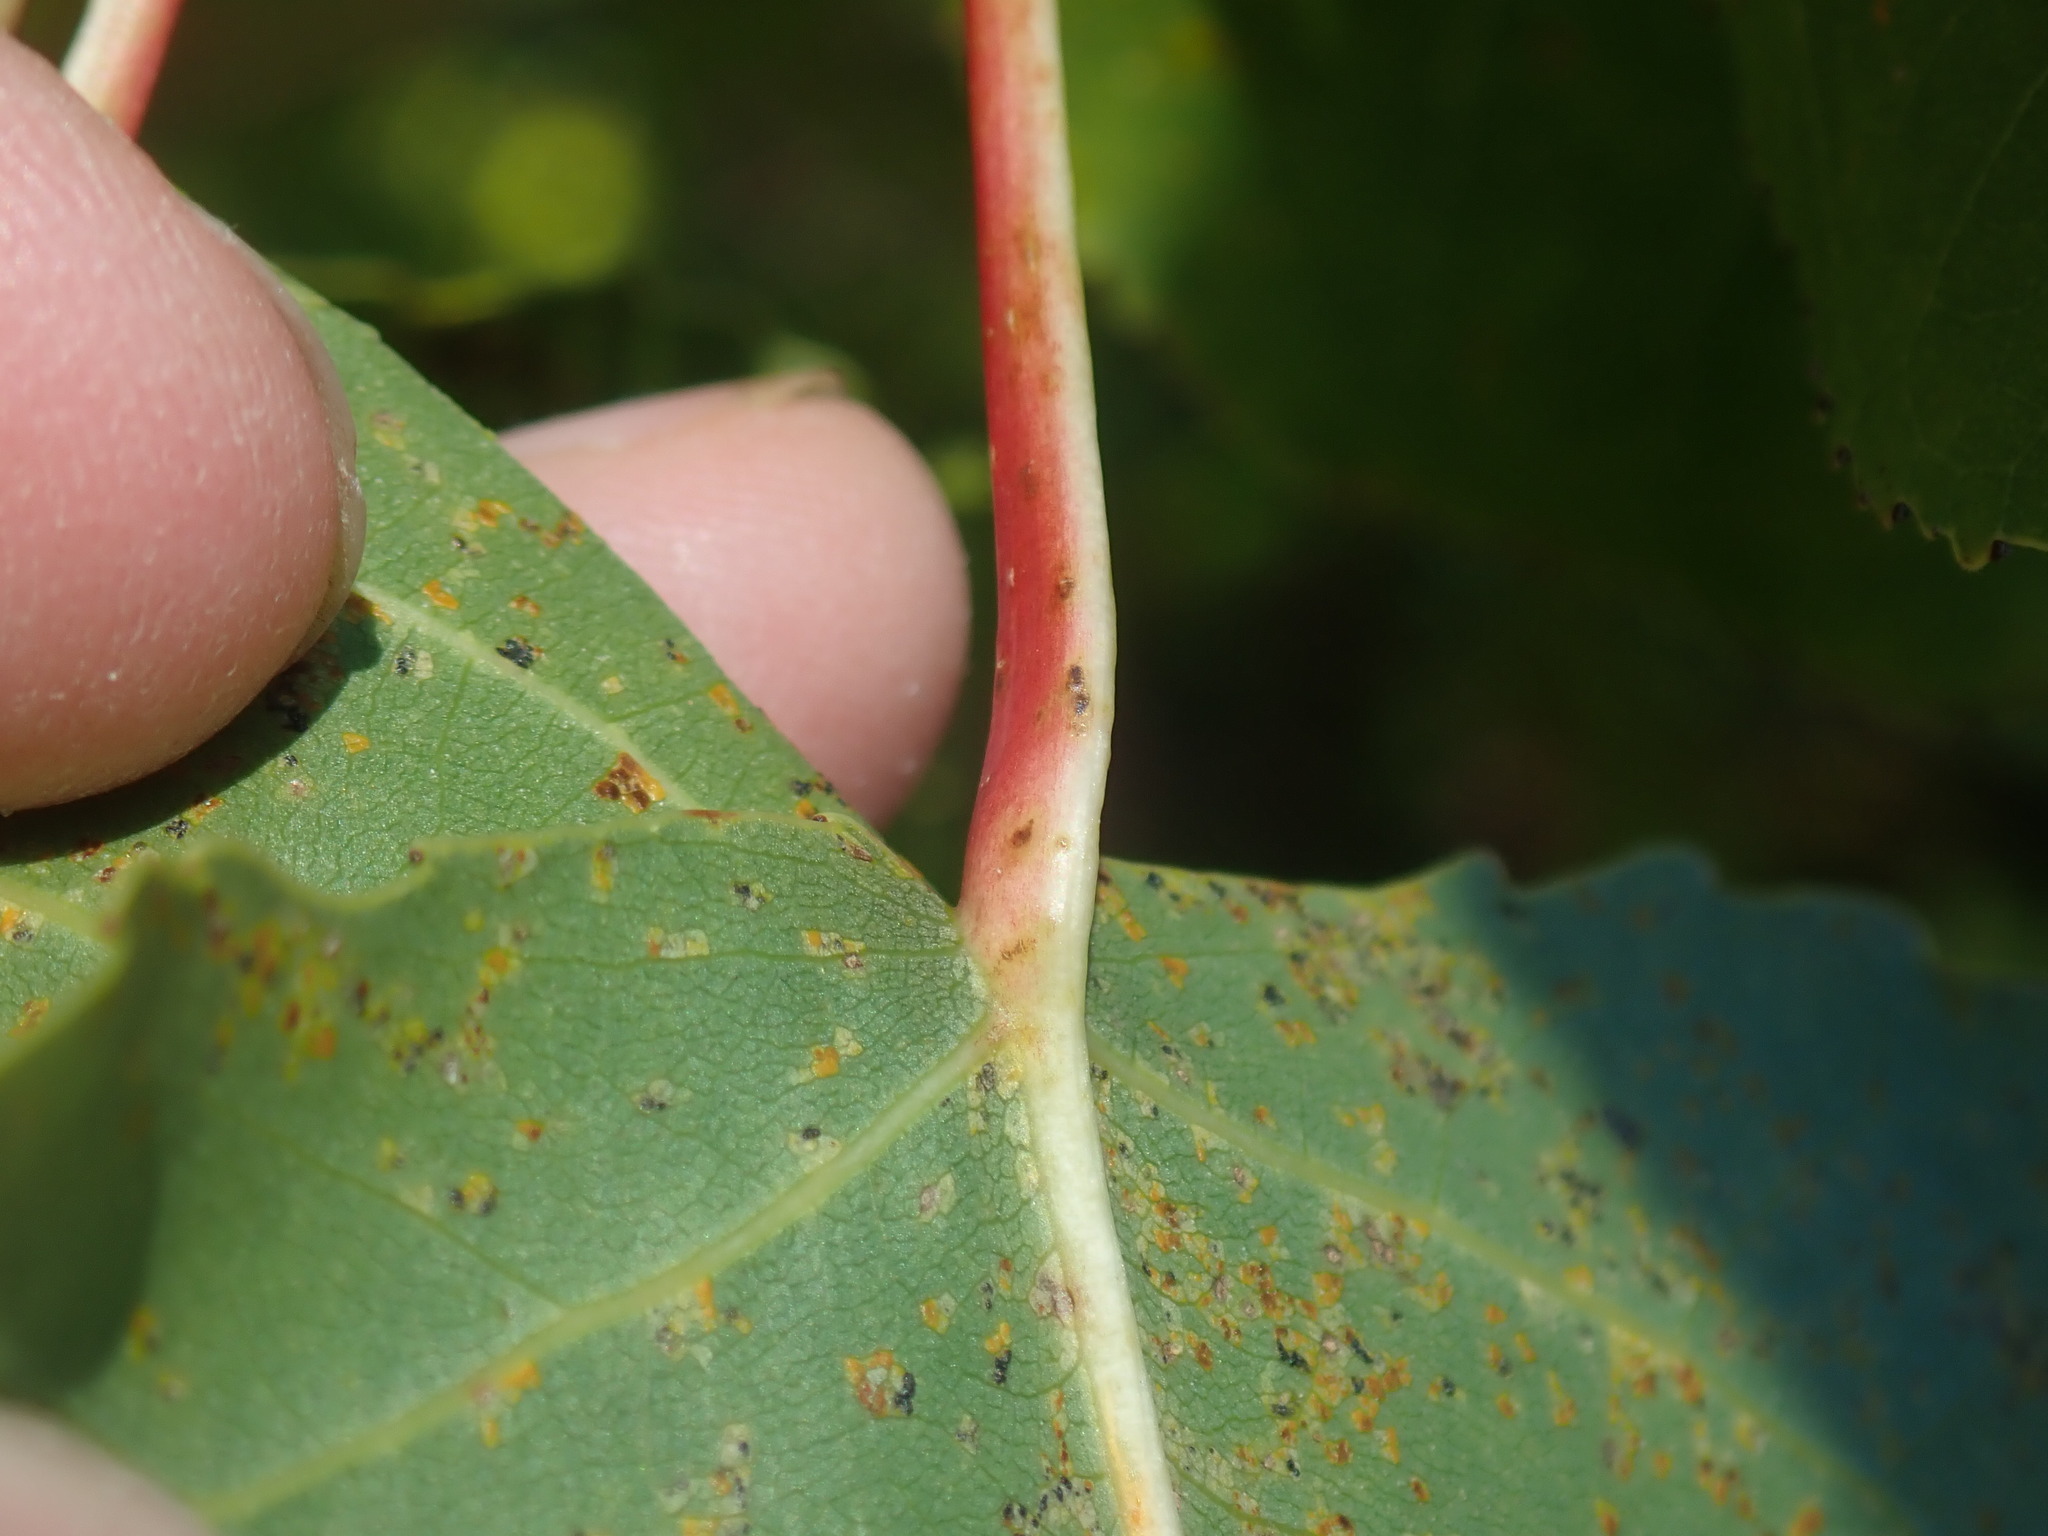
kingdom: Plantae
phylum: Tracheophyta
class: Magnoliopsida
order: Malpighiales
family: Salicaceae
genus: Populus
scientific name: Populus deltoides
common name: Eastern cottonwood
